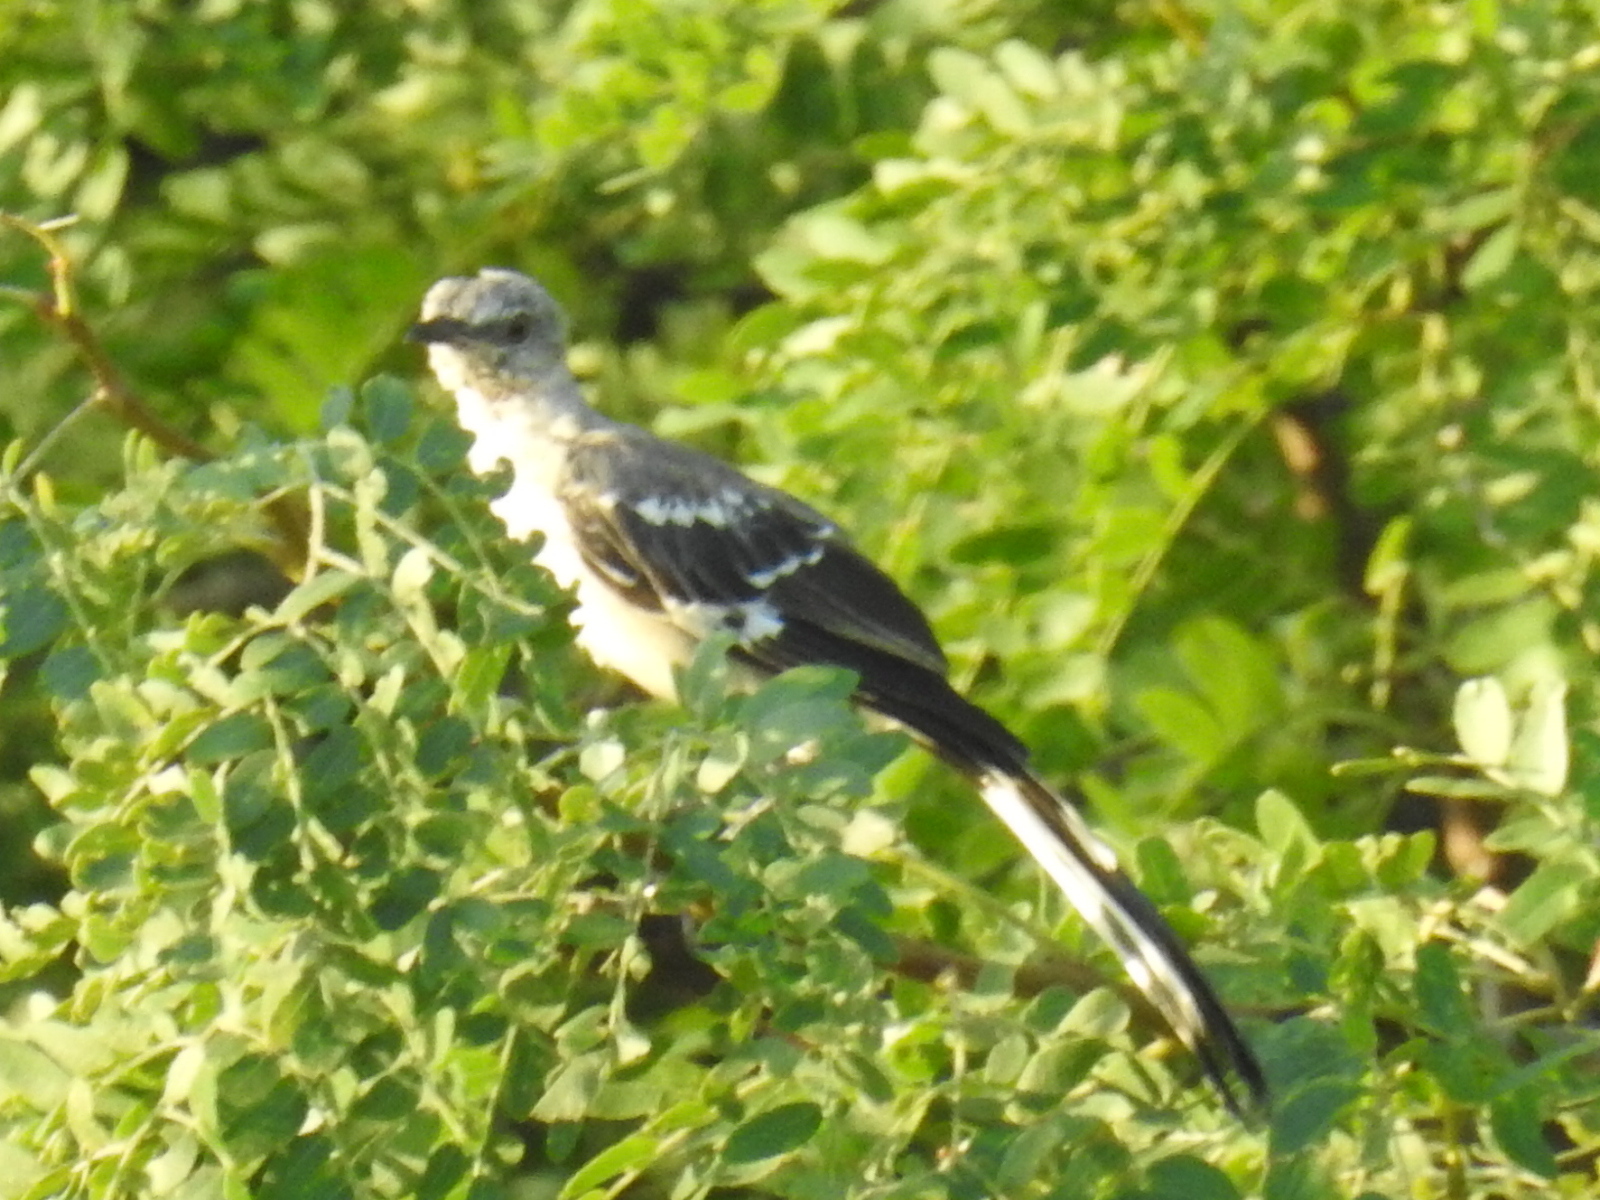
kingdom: Animalia
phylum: Chordata
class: Aves
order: Passeriformes
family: Mimidae
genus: Mimus
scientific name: Mimus polyglottos
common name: Northern mockingbird
